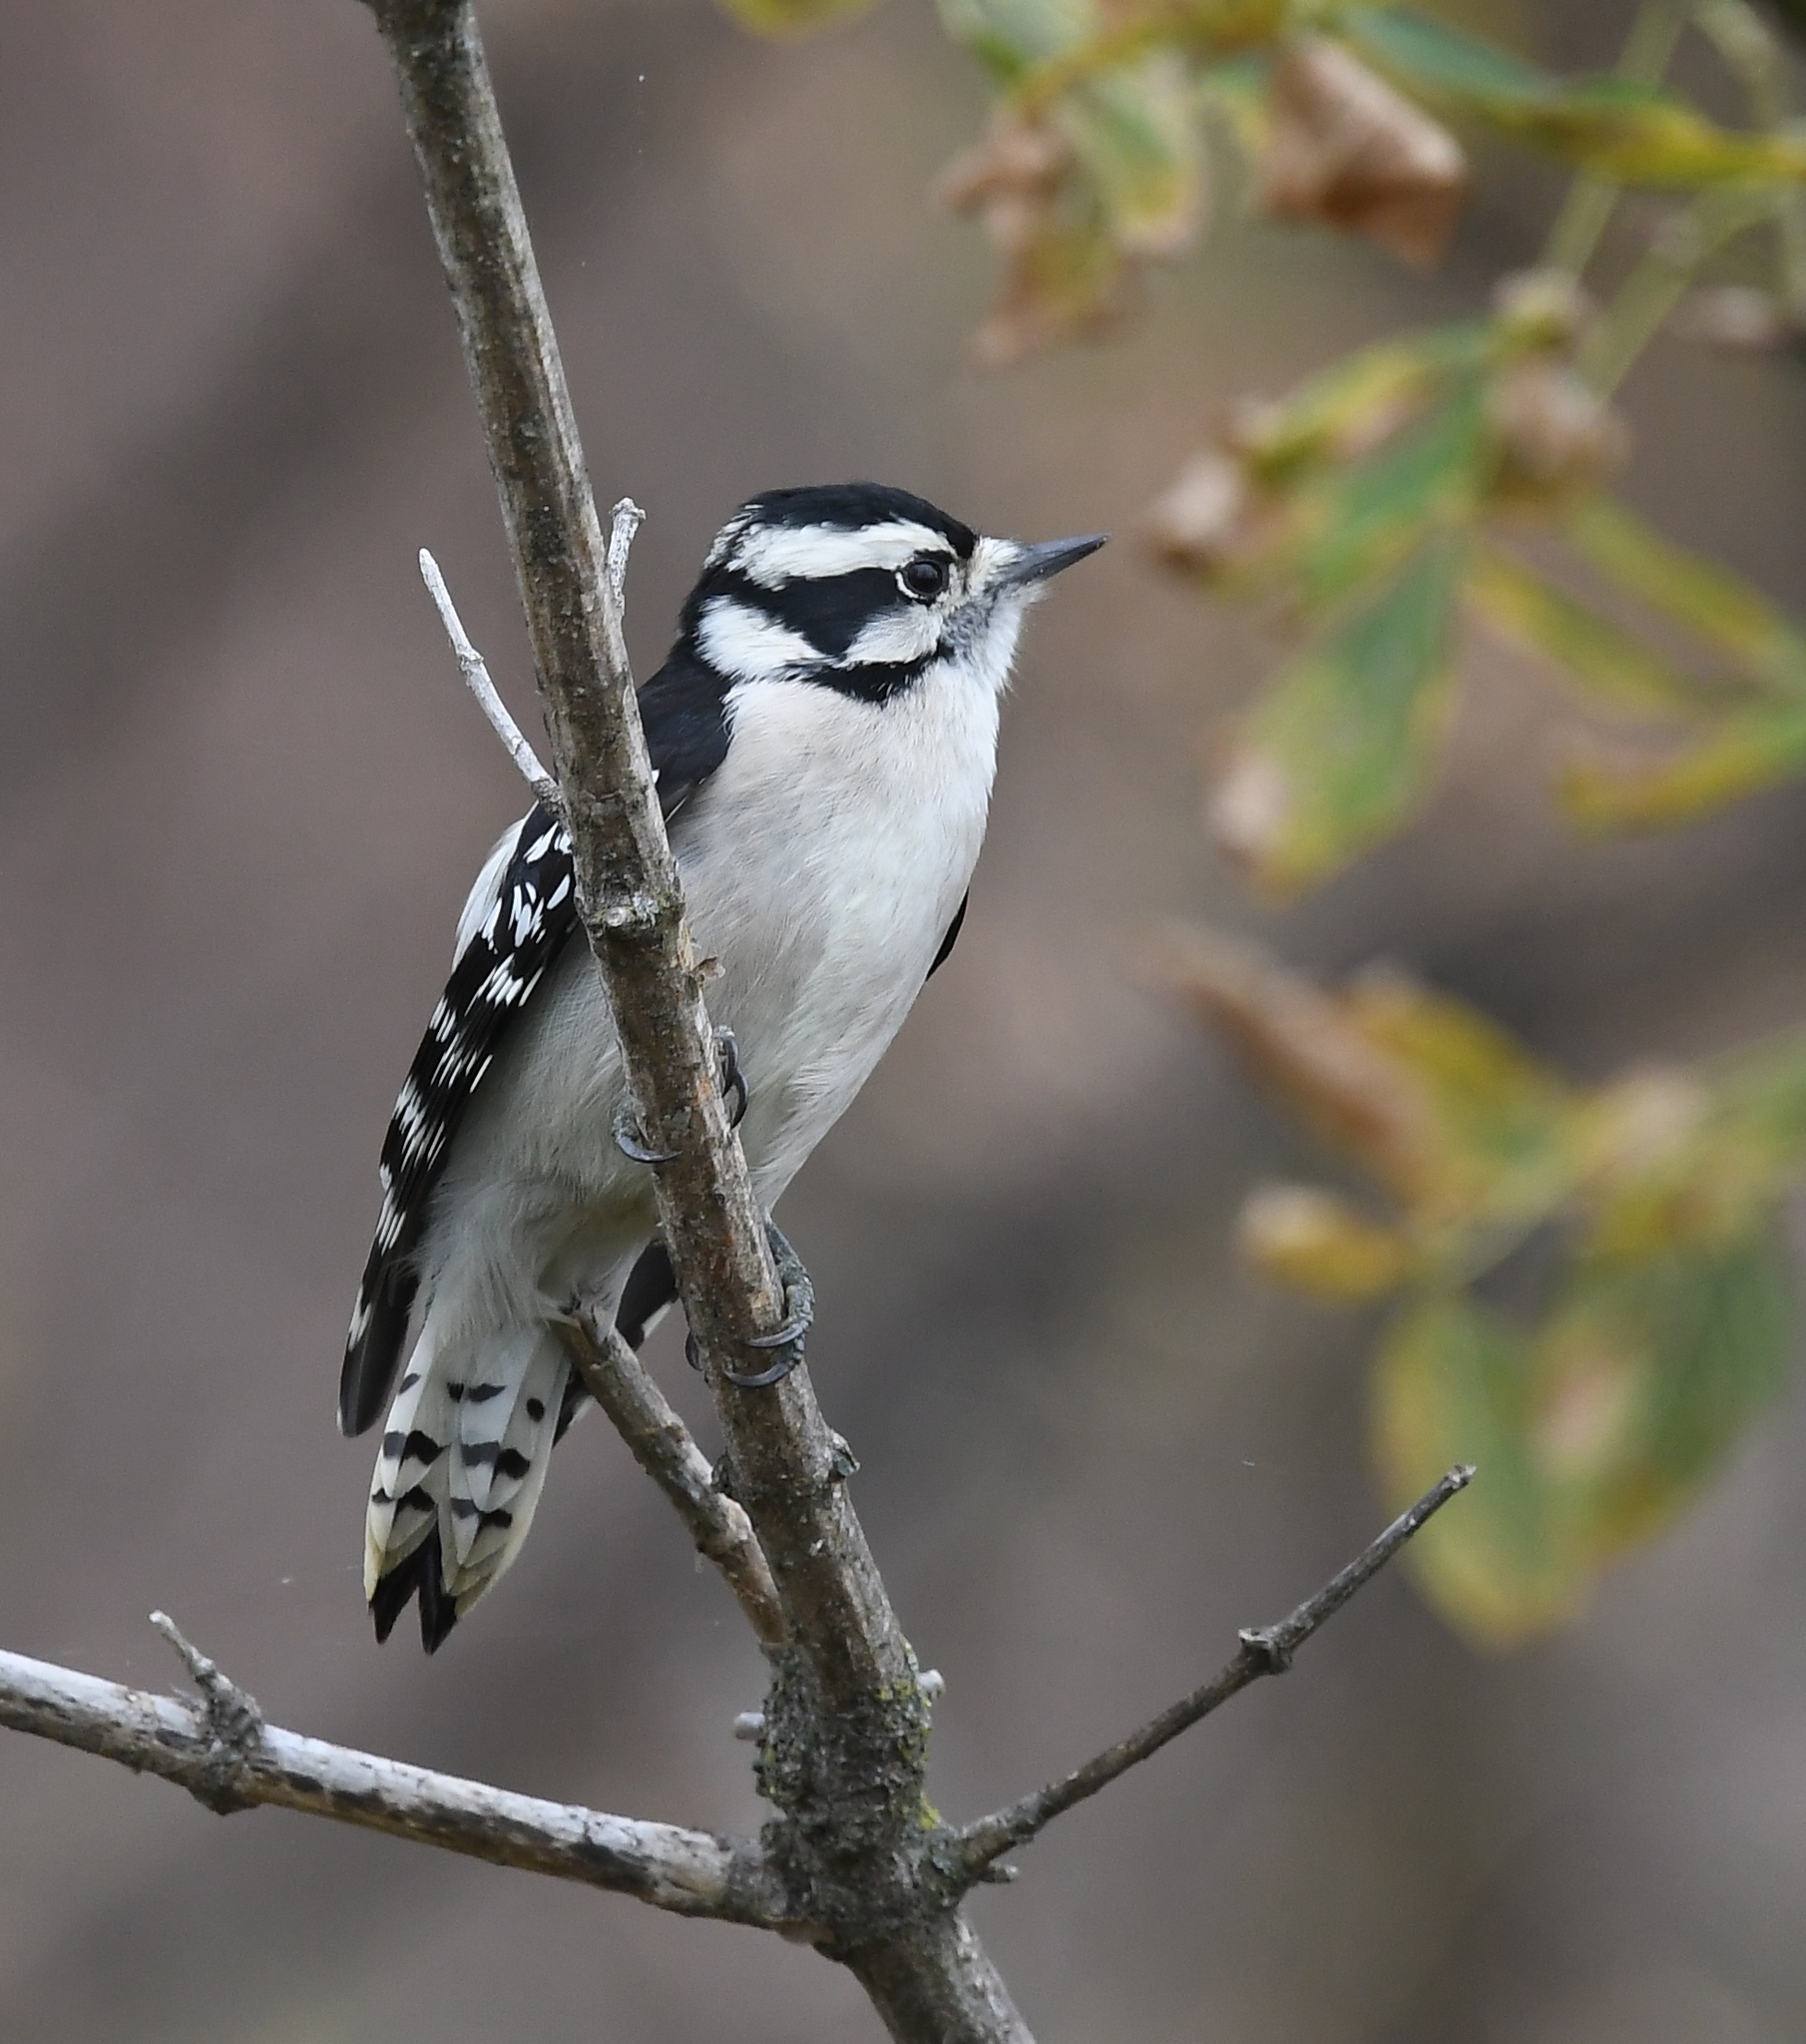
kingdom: Animalia
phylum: Chordata
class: Aves
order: Piciformes
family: Picidae
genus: Dryobates
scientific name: Dryobates pubescens
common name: Downy woodpecker
